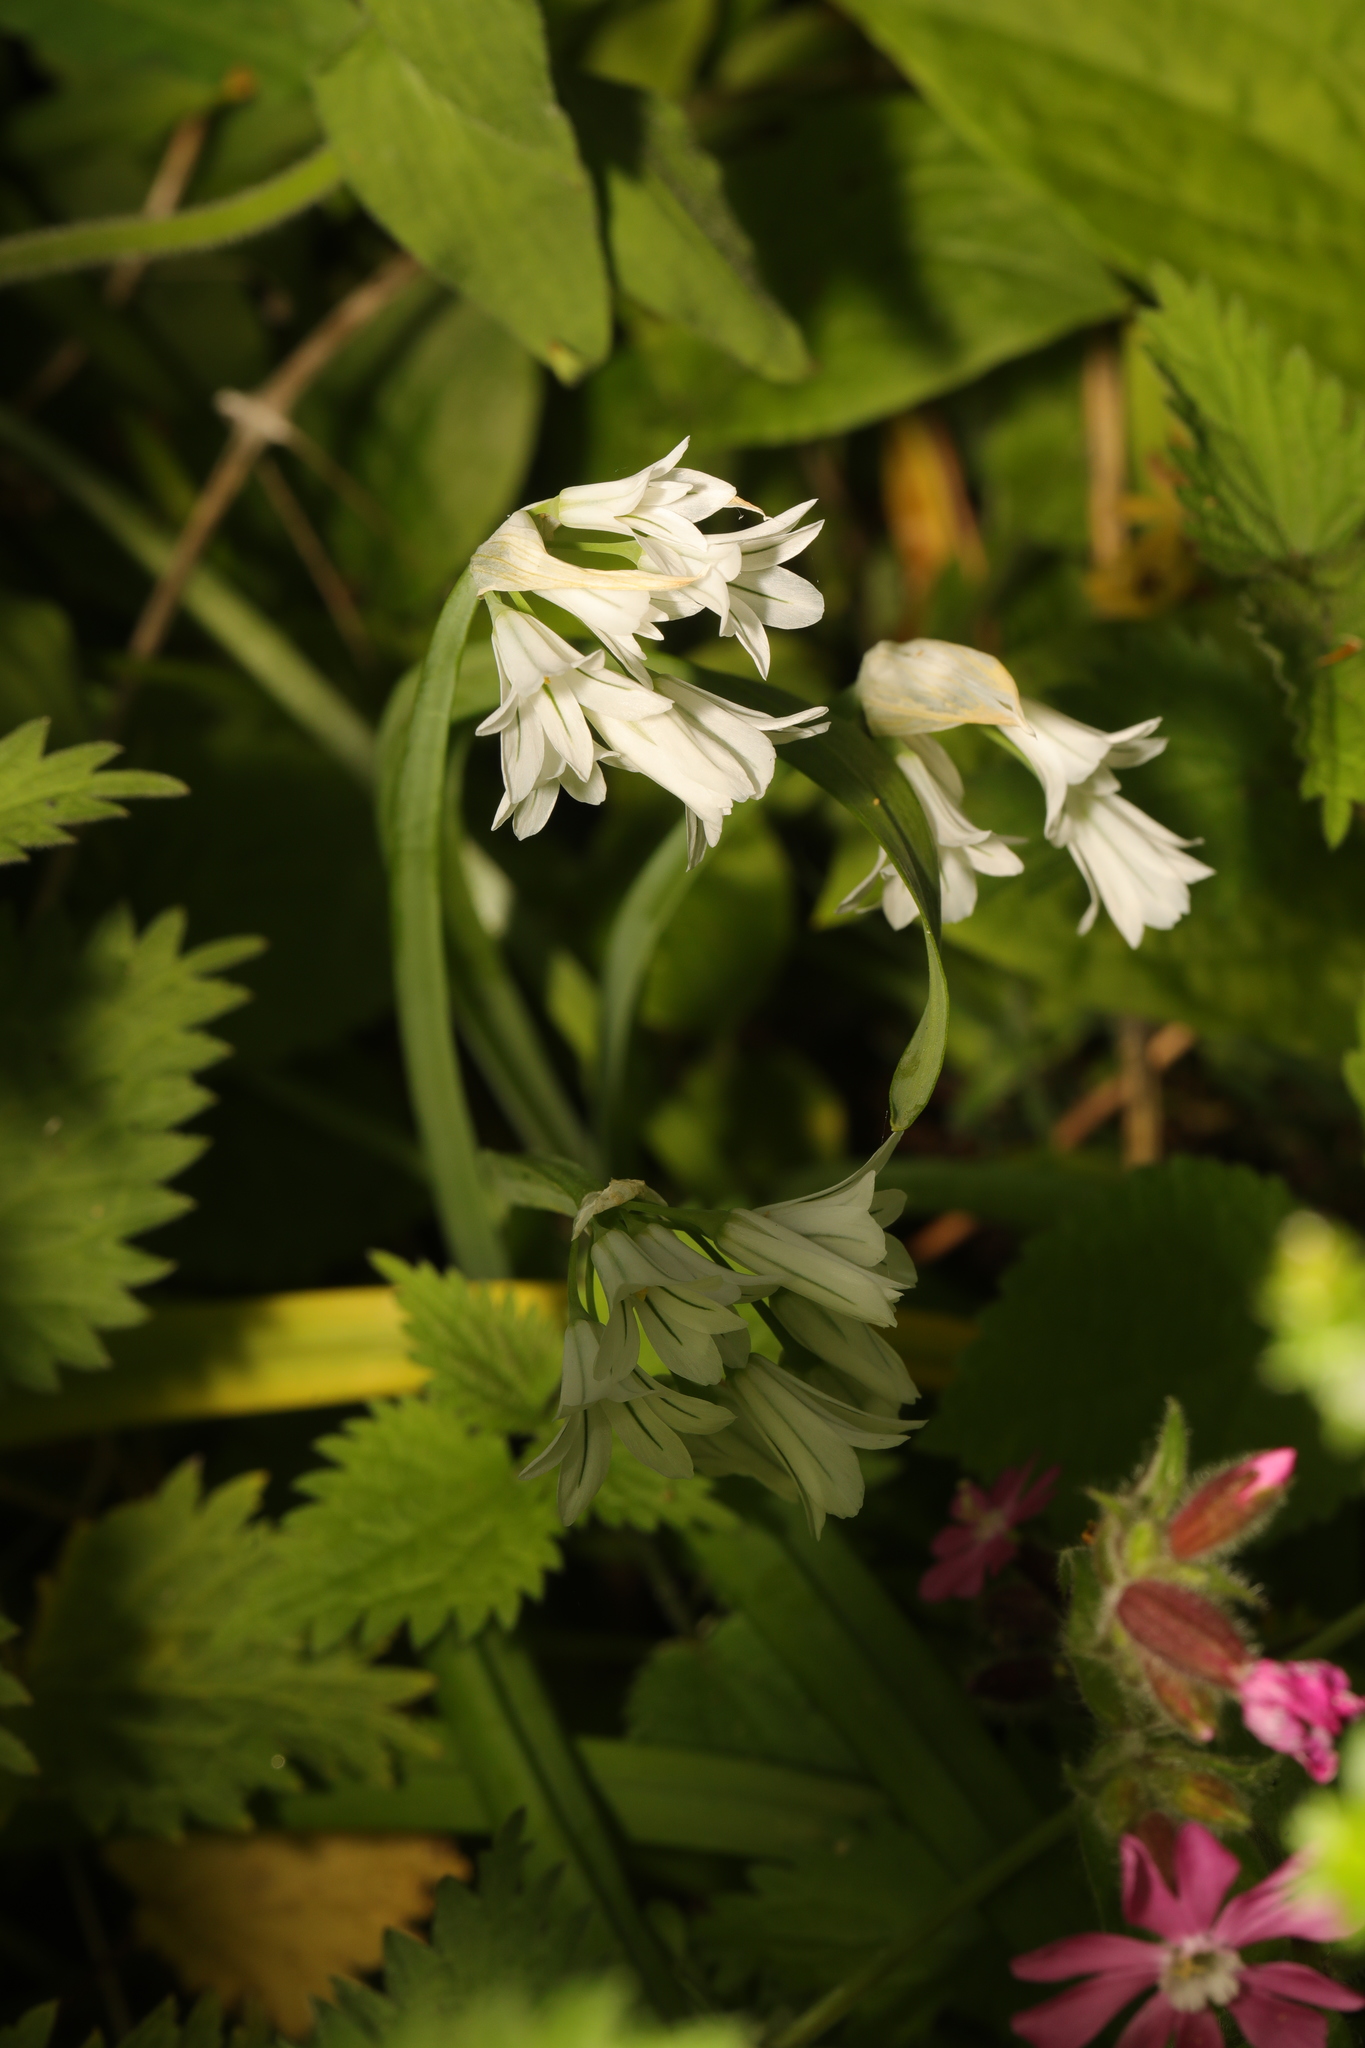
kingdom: Plantae
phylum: Tracheophyta
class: Liliopsida
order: Asparagales
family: Amaryllidaceae
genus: Allium
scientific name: Allium triquetrum
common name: Three-cornered garlic
